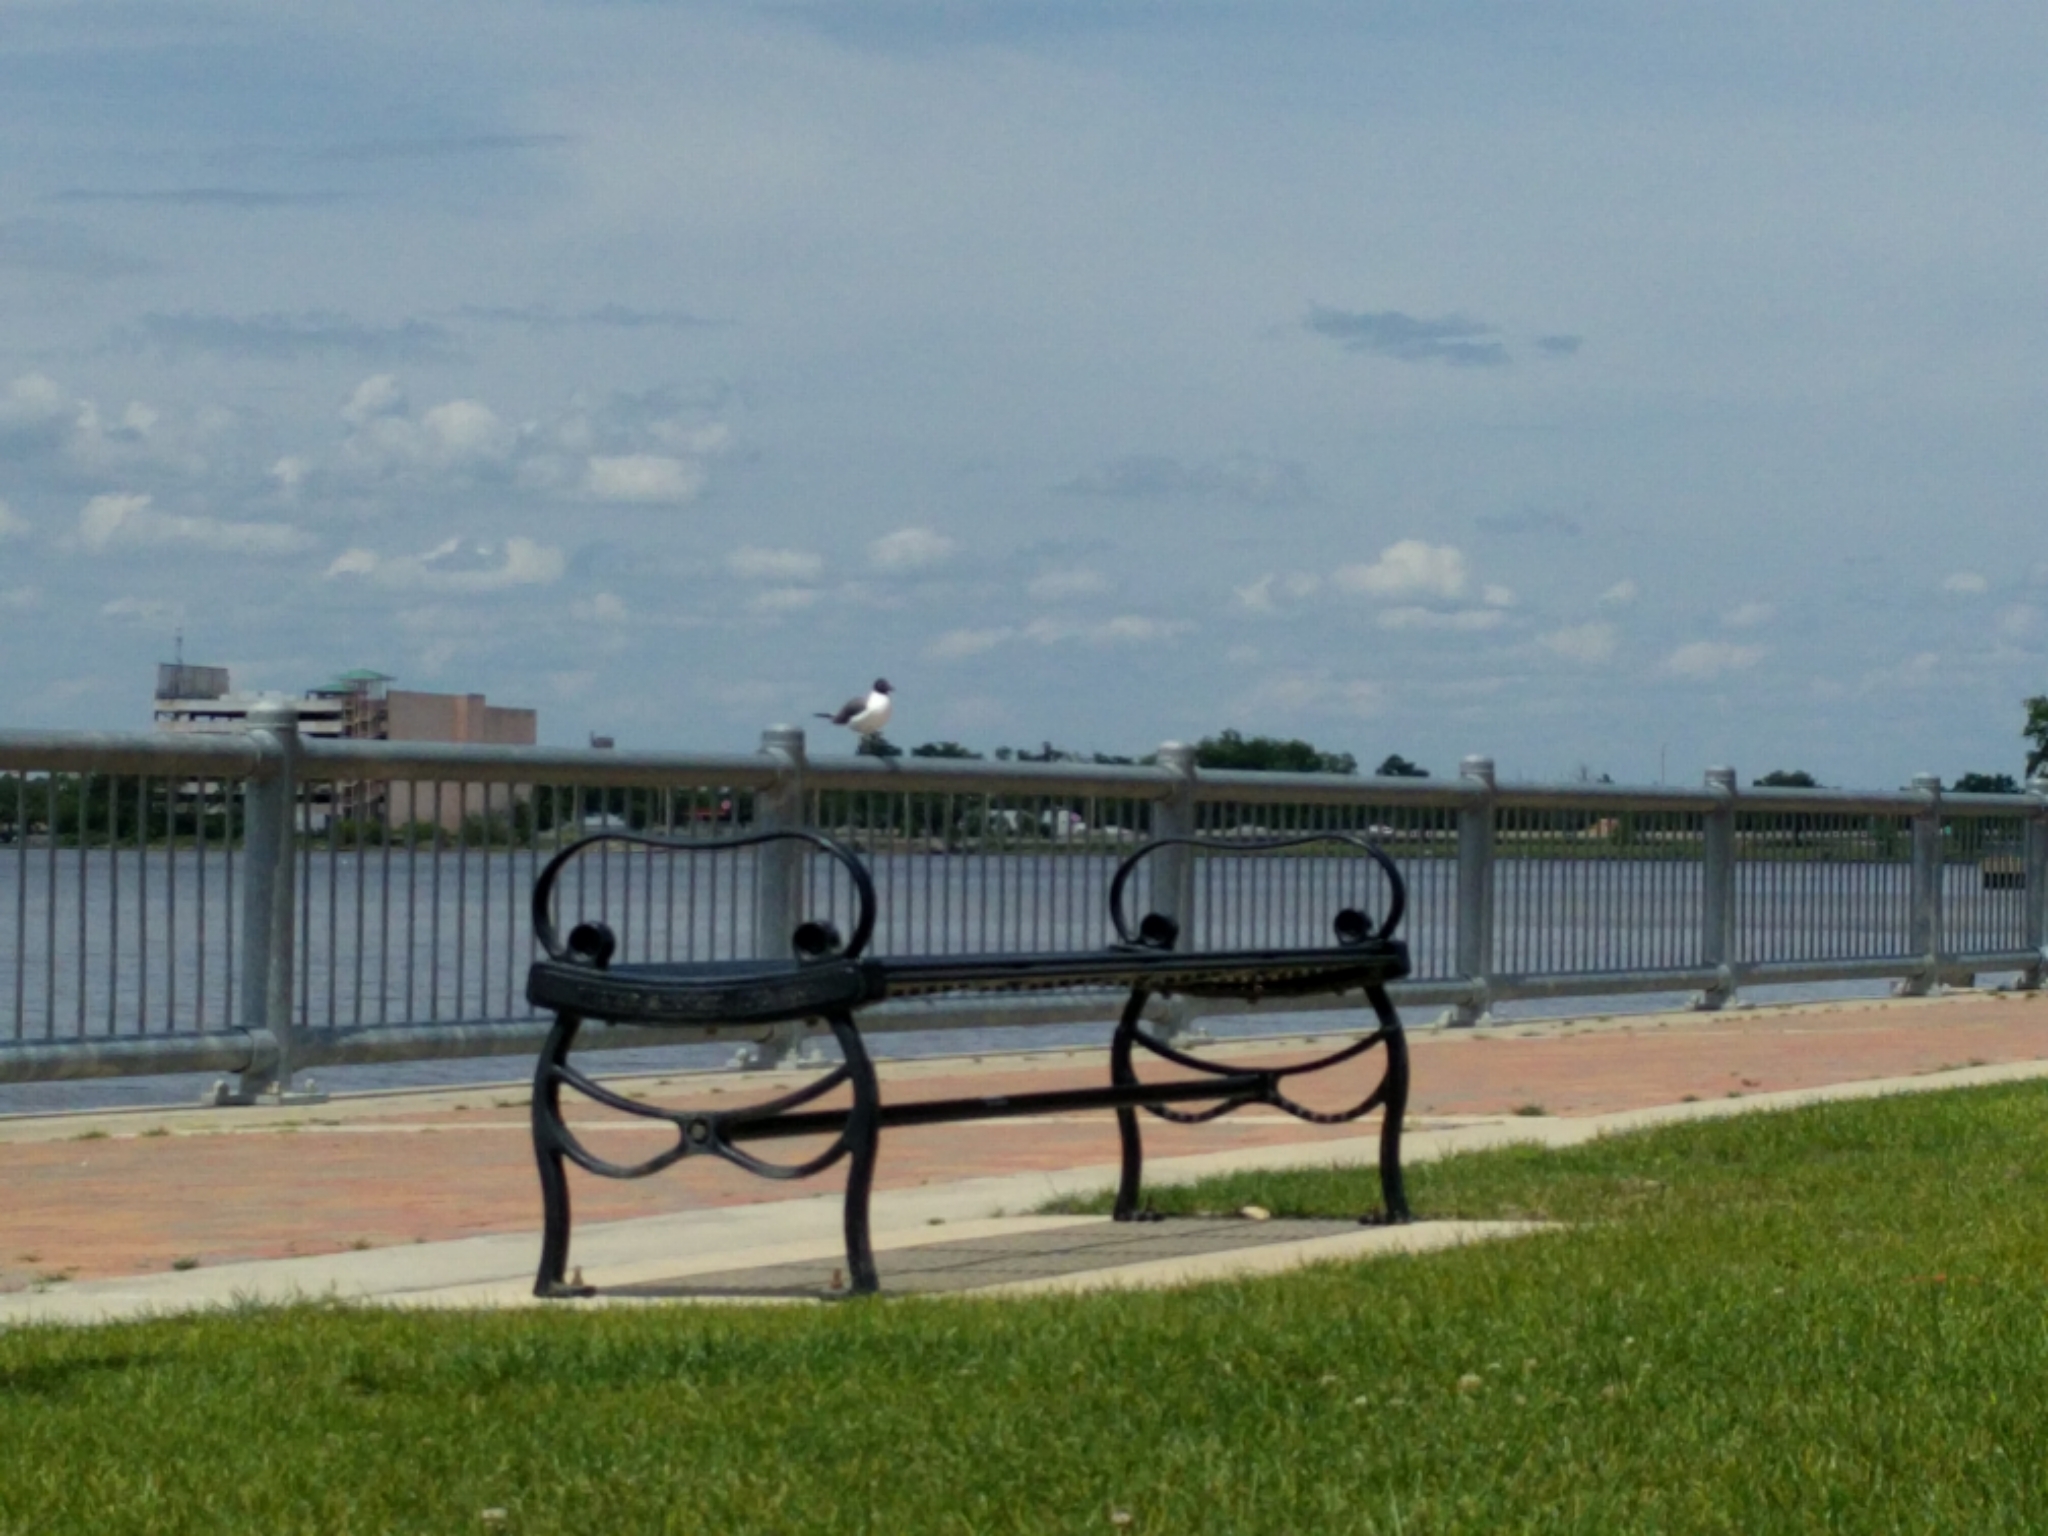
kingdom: Animalia
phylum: Chordata
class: Aves
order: Charadriiformes
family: Laridae
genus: Leucophaeus
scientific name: Leucophaeus atricilla
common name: Laughing gull
